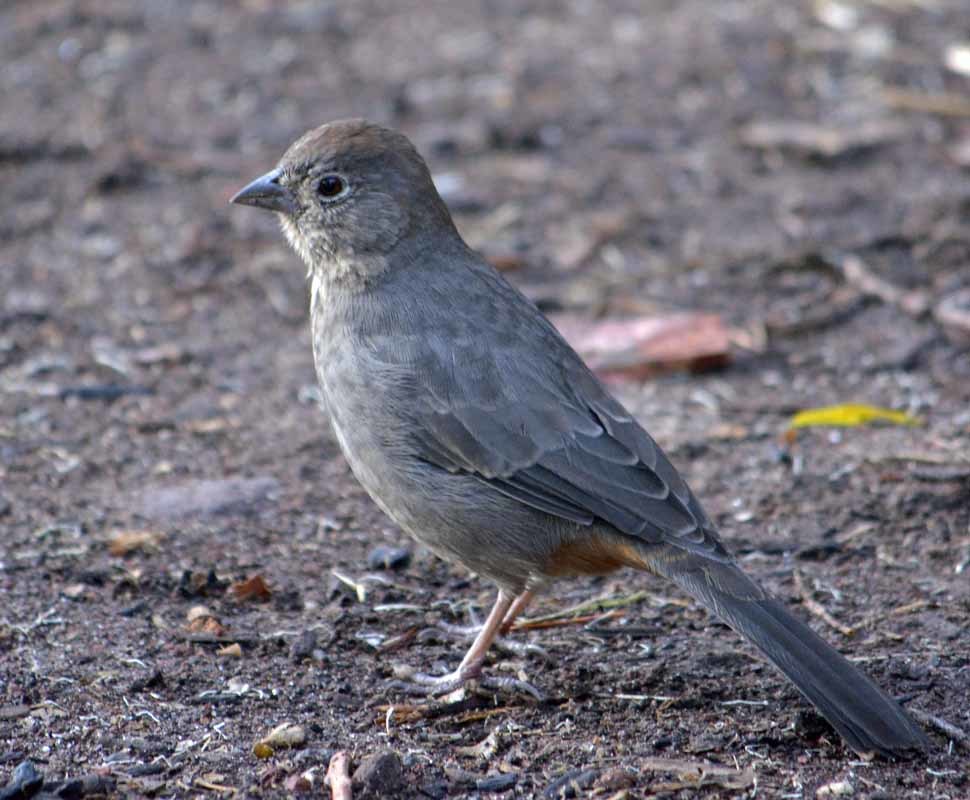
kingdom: Animalia
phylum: Chordata
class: Aves
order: Passeriformes
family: Passerellidae
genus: Melozone
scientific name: Melozone fusca
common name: Canyon towhee
